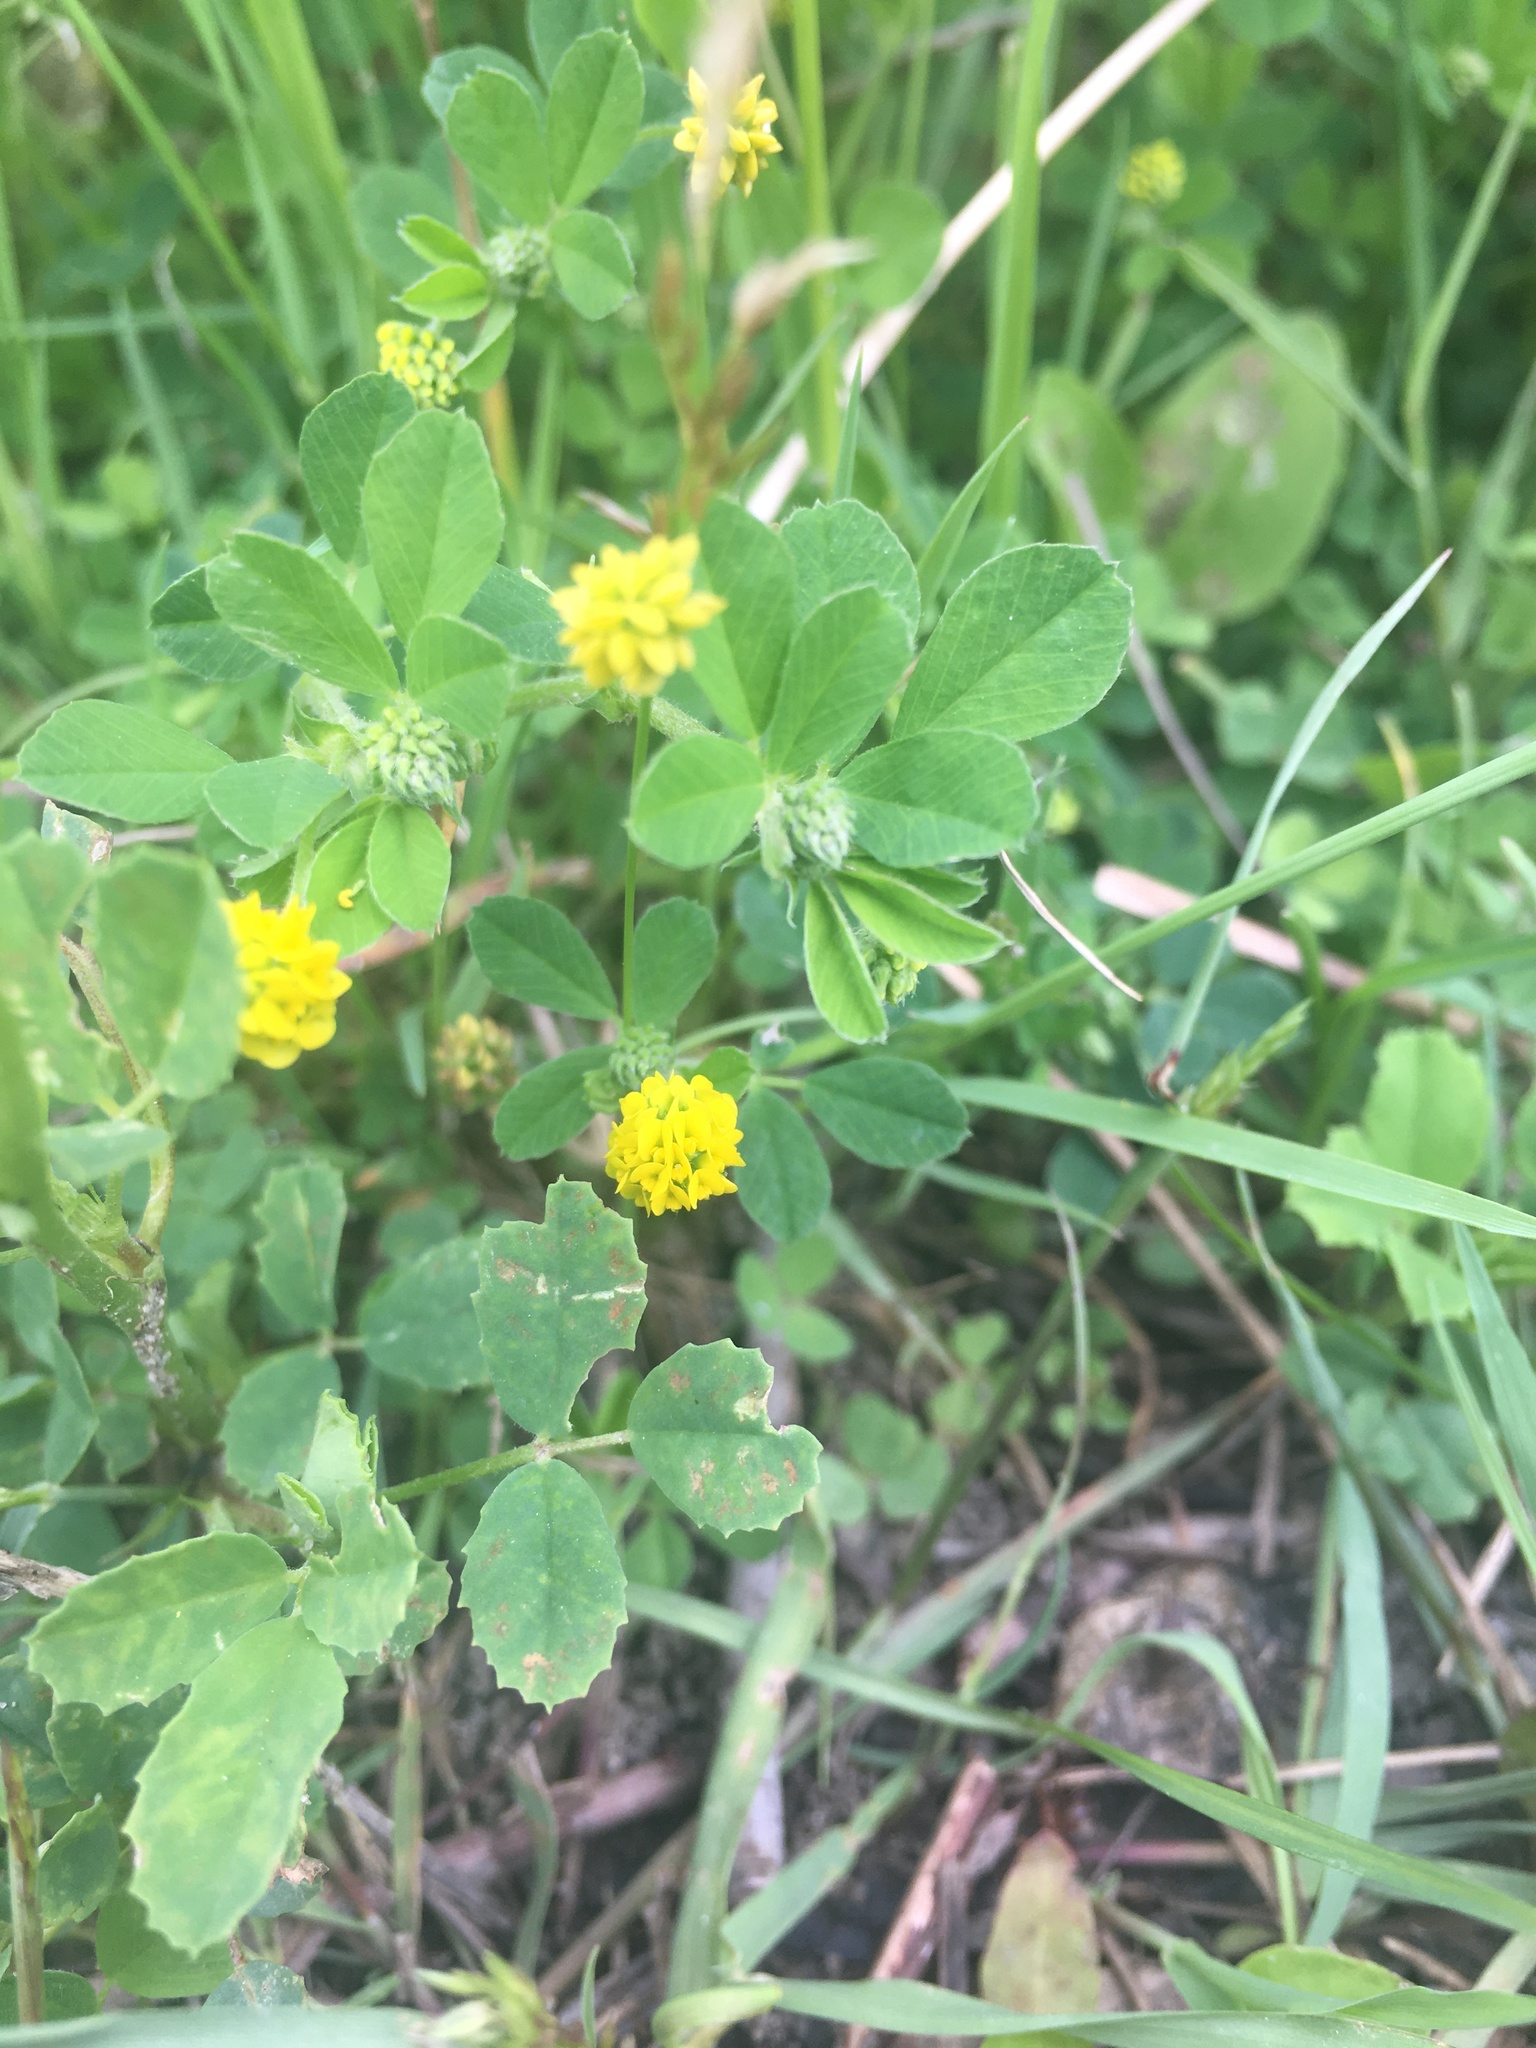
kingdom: Plantae
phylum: Tracheophyta
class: Magnoliopsida
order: Fabales
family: Fabaceae
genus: Medicago
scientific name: Medicago lupulina
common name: Black medick
